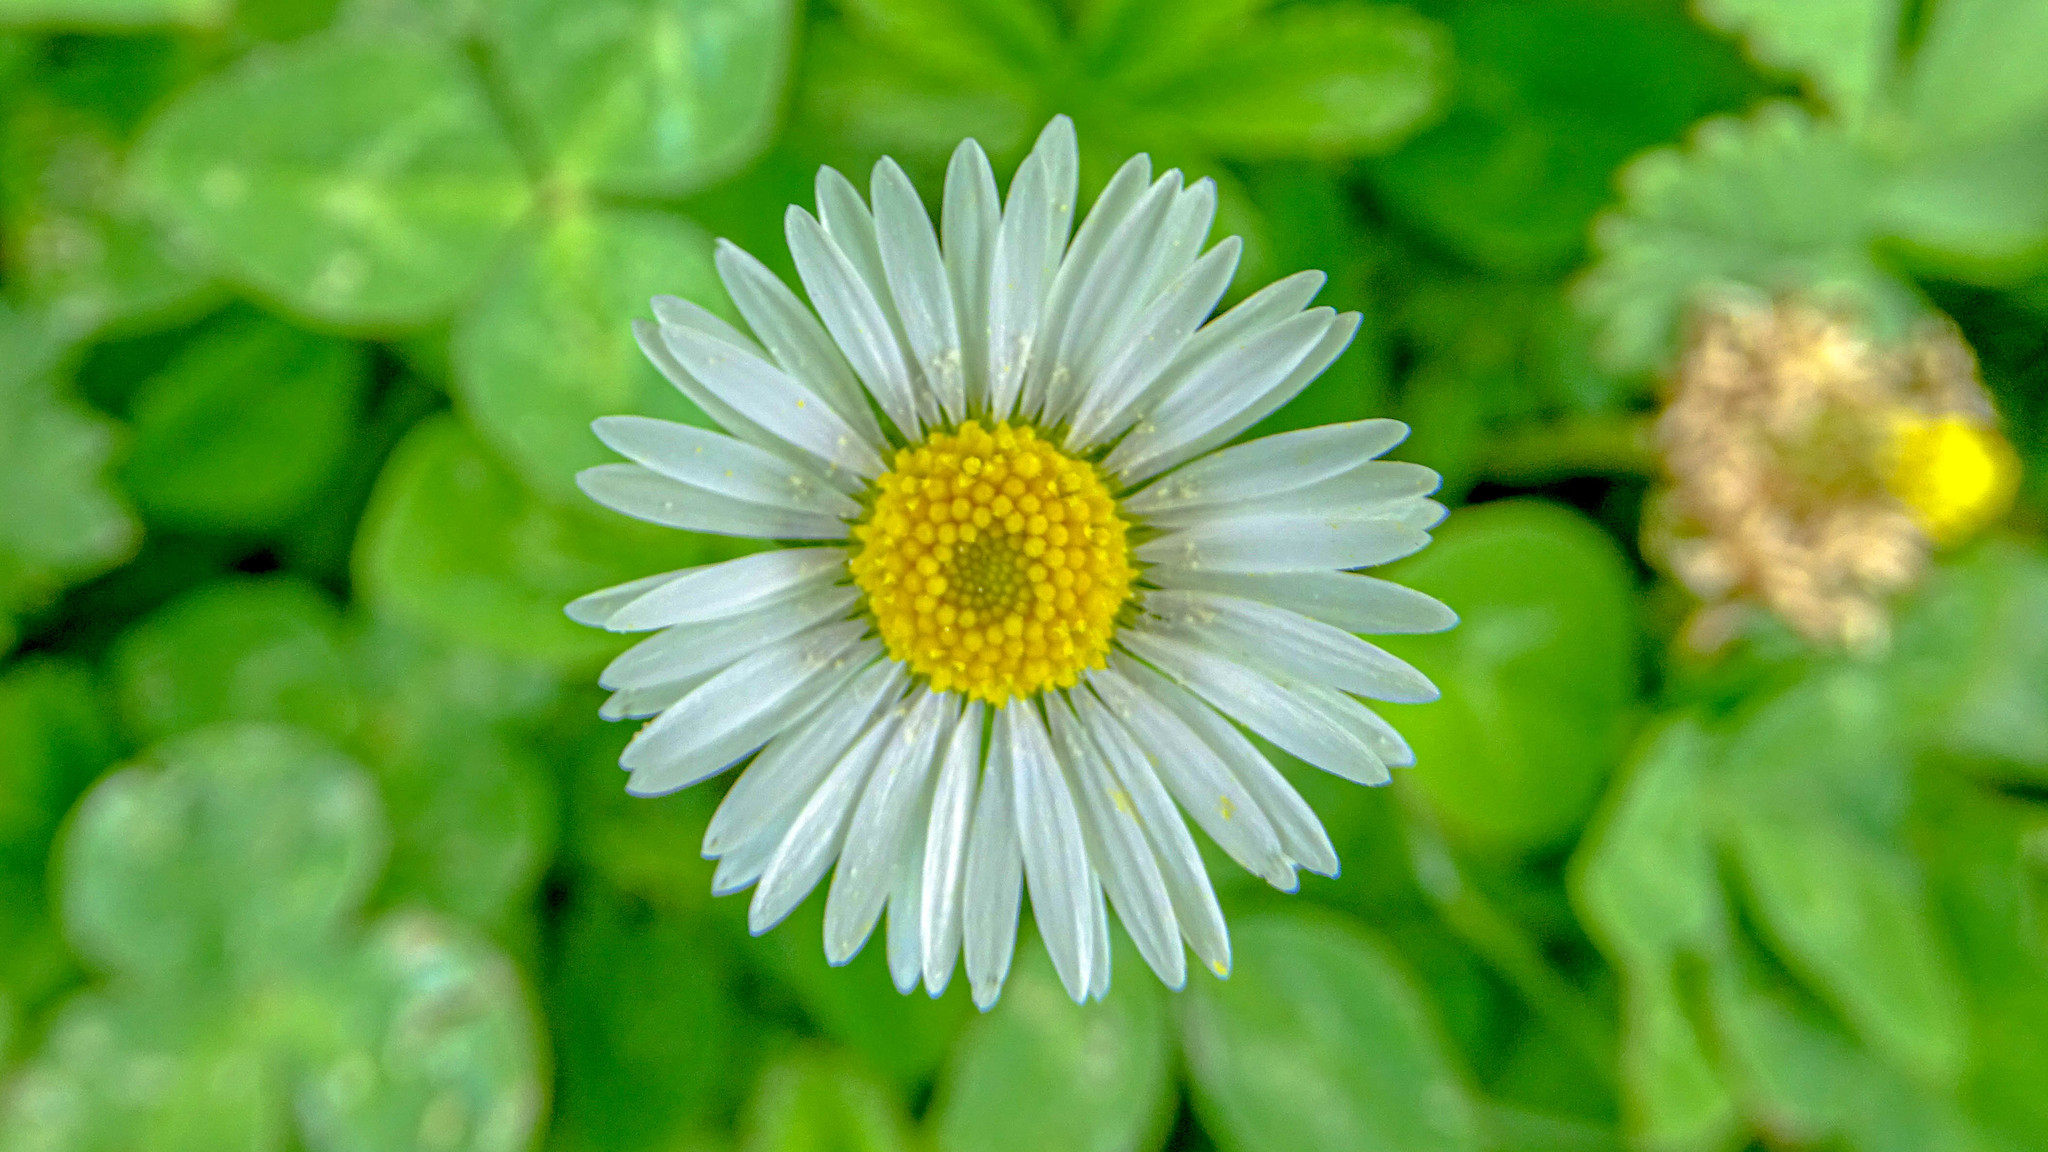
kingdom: Plantae
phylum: Tracheophyta
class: Magnoliopsida
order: Asterales
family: Asteraceae
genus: Bellis
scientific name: Bellis perennis
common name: Lawndaisy
